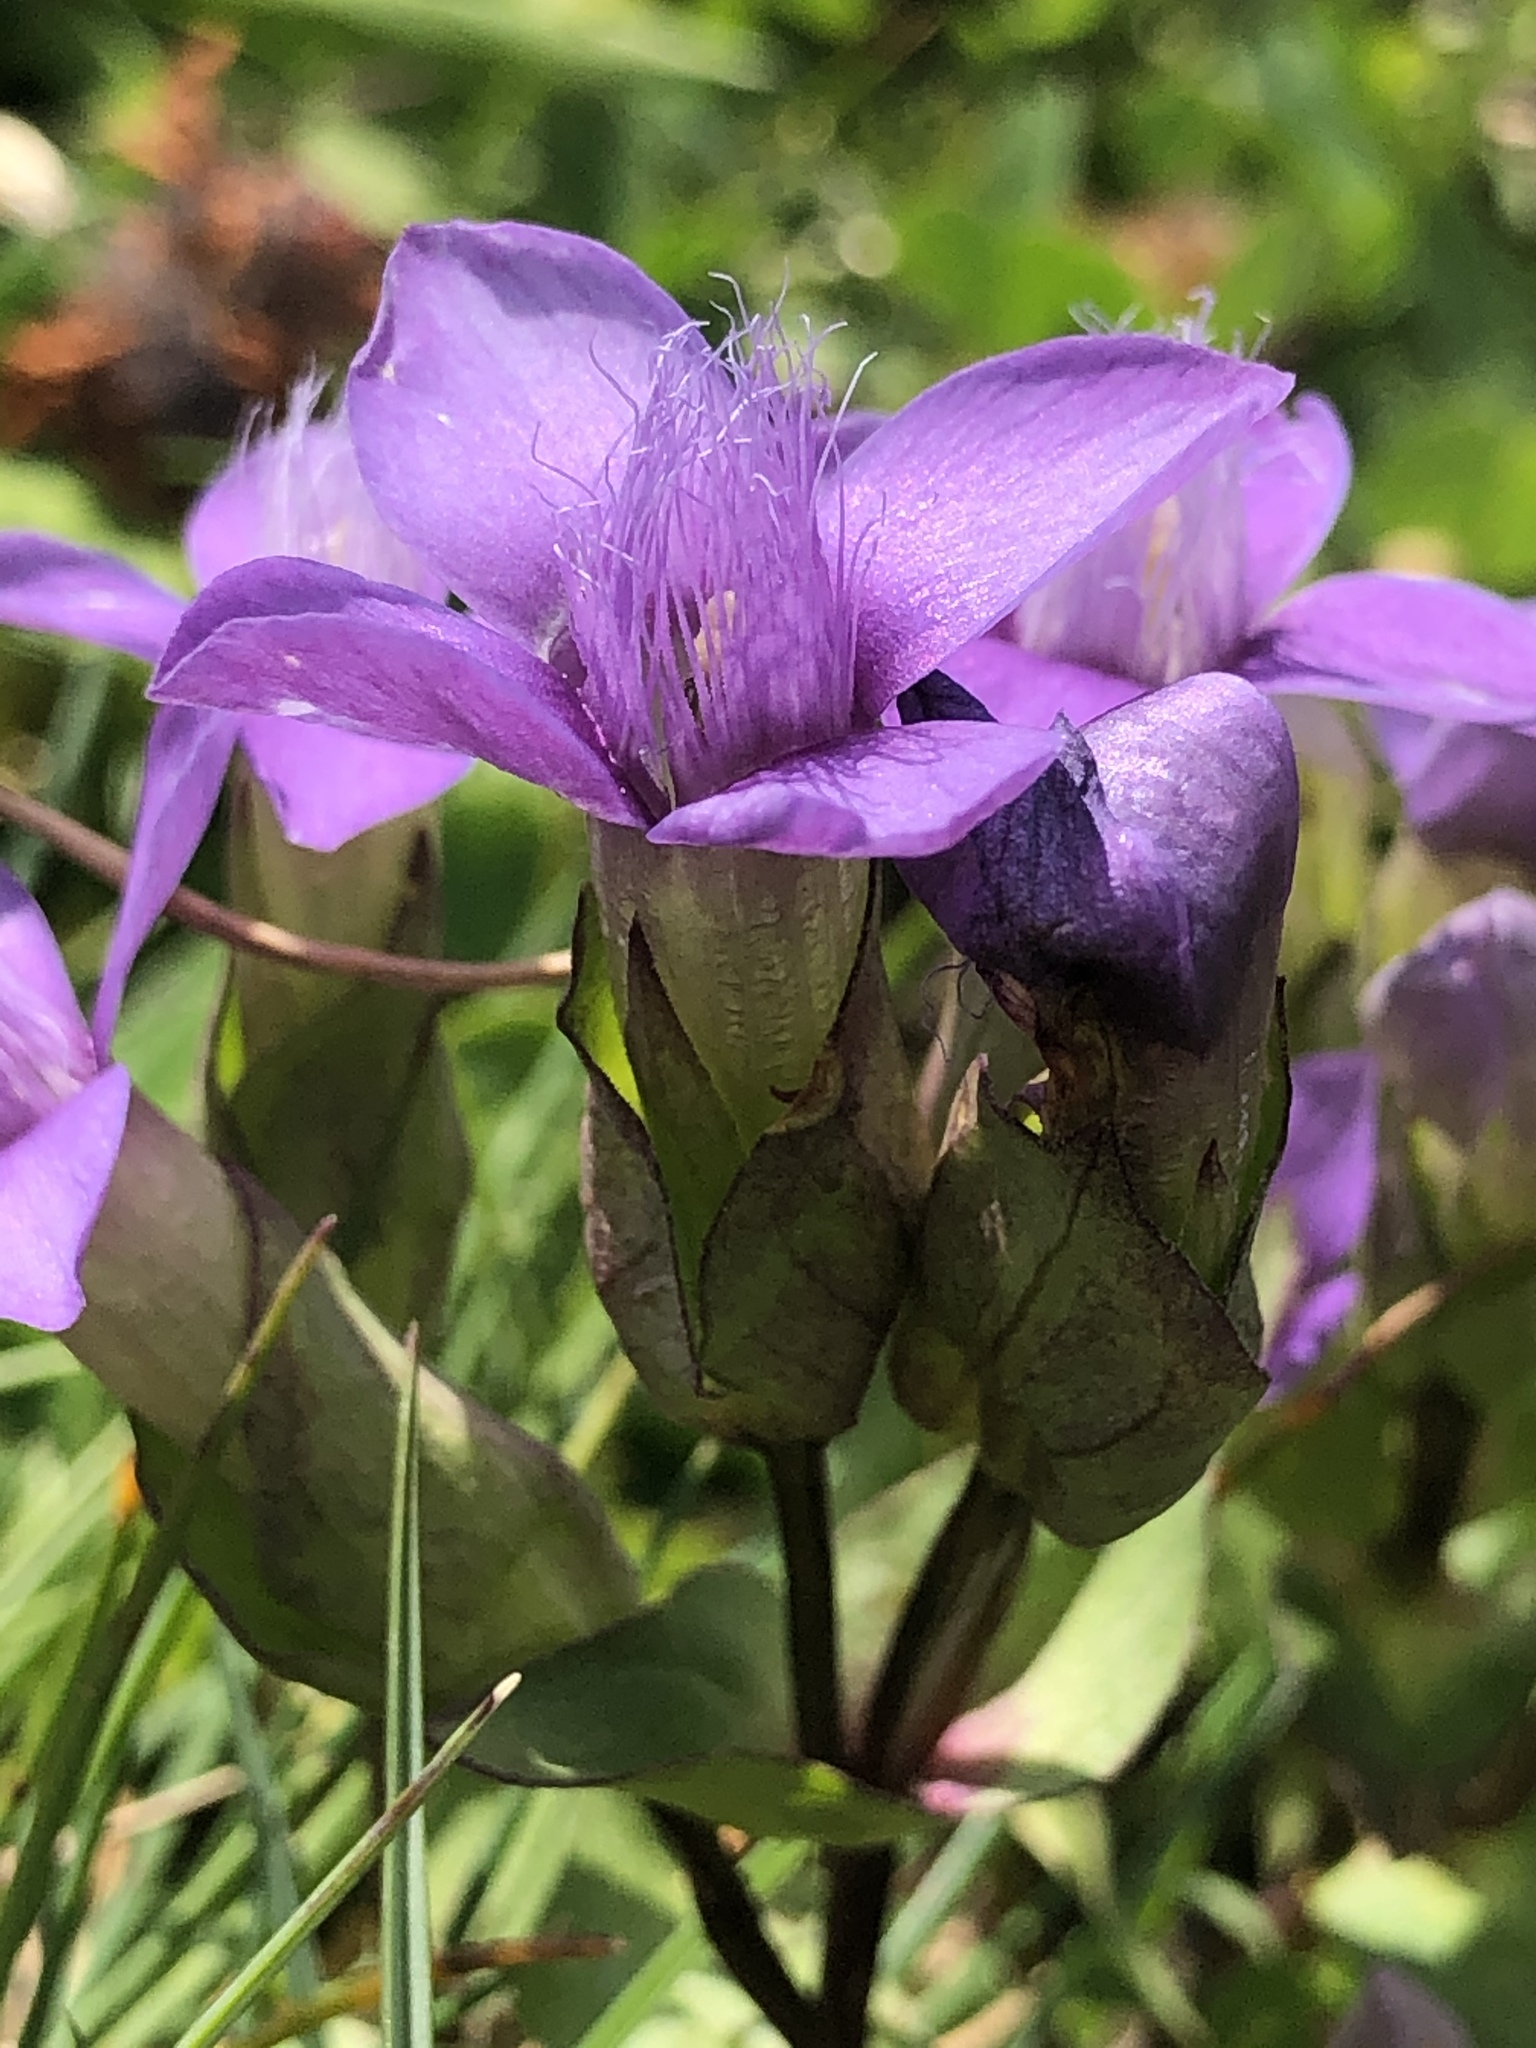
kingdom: Plantae
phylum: Tracheophyta
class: Magnoliopsida
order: Gentianales
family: Gentianaceae
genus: Gentianella
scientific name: Gentianella campestris
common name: Field gentian
